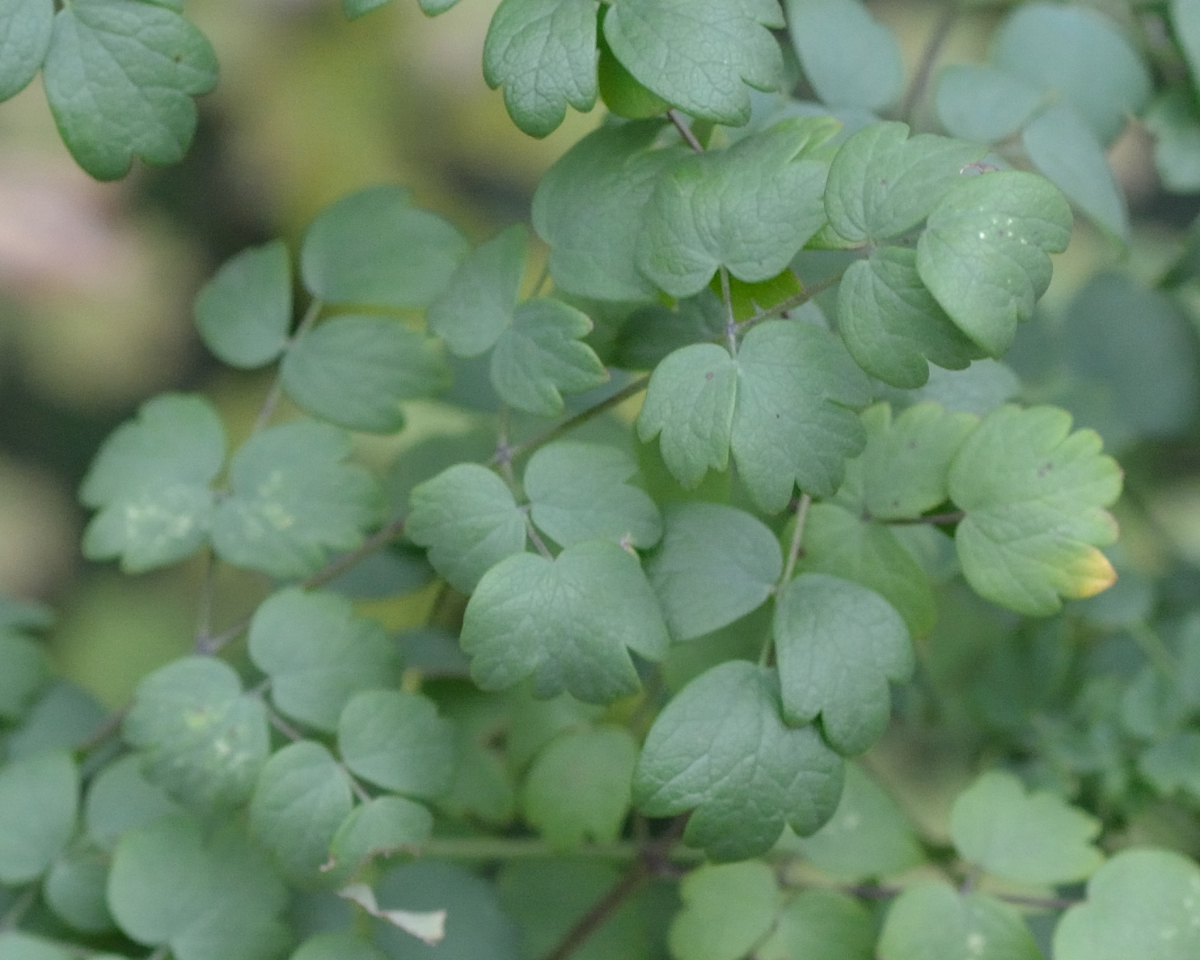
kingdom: Plantae
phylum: Tracheophyta
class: Magnoliopsida
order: Ranunculales
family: Ranunculaceae
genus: Thalictrum
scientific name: Thalictrum minus
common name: Lesser meadow-rue
